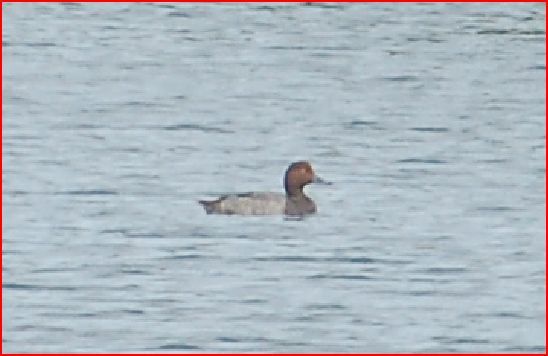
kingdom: Animalia
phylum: Chordata
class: Aves
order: Anseriformes
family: Anatidae
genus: Aythya
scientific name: Aythya americana
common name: Redhead
